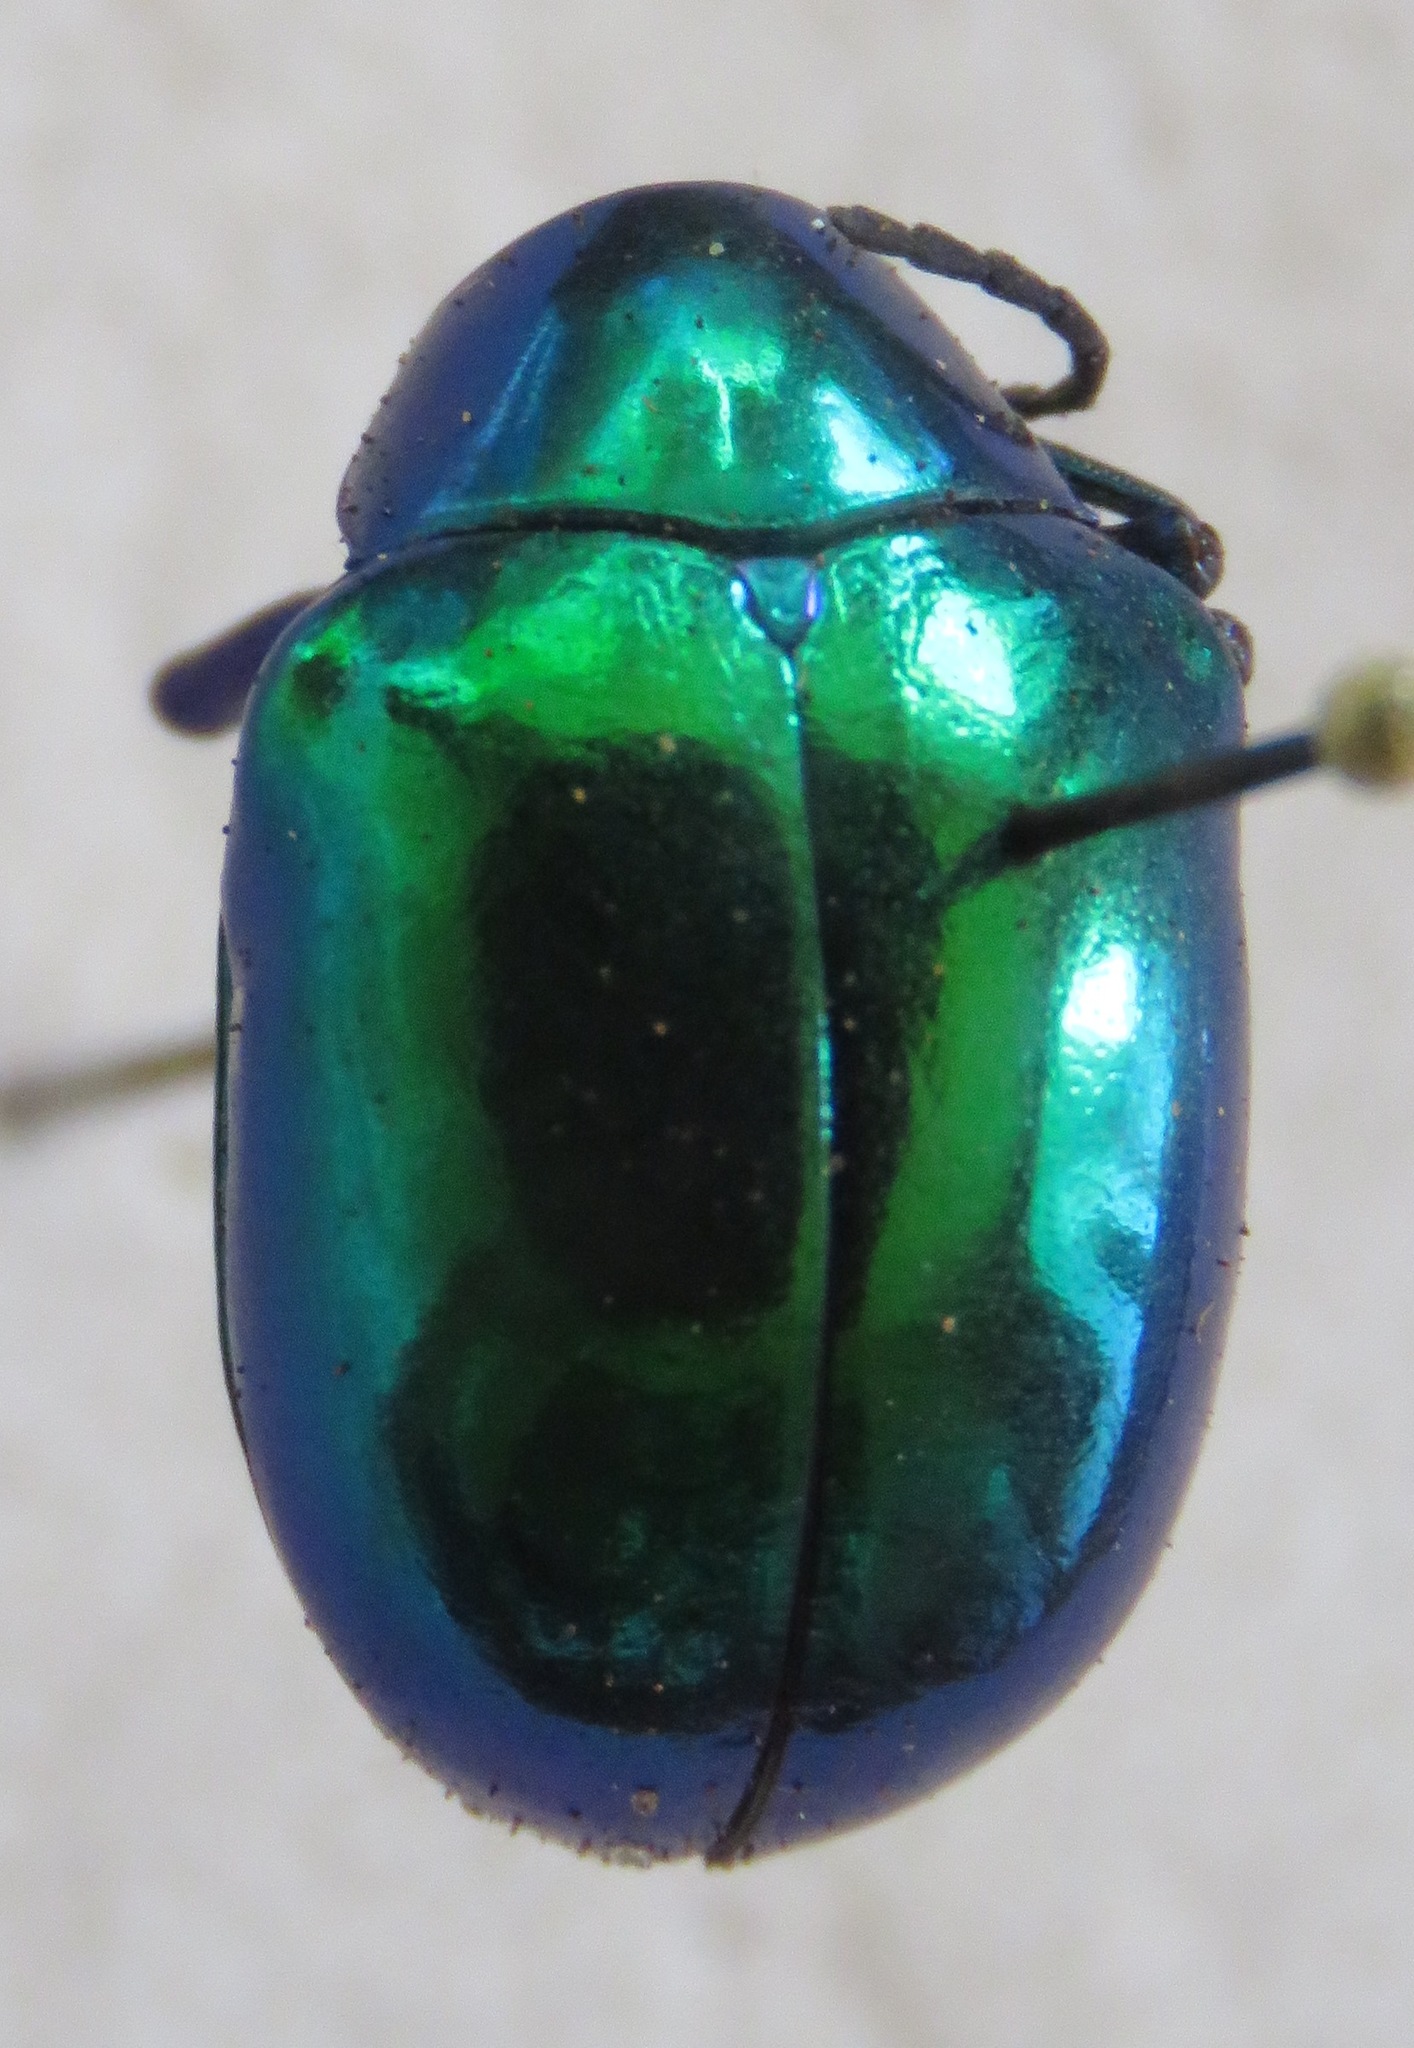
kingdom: Animalia
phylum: Arthropoda
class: Insecta
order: Coleoptera
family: Chrysomelidae
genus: Eumolpus
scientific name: Eumolpus robustus
